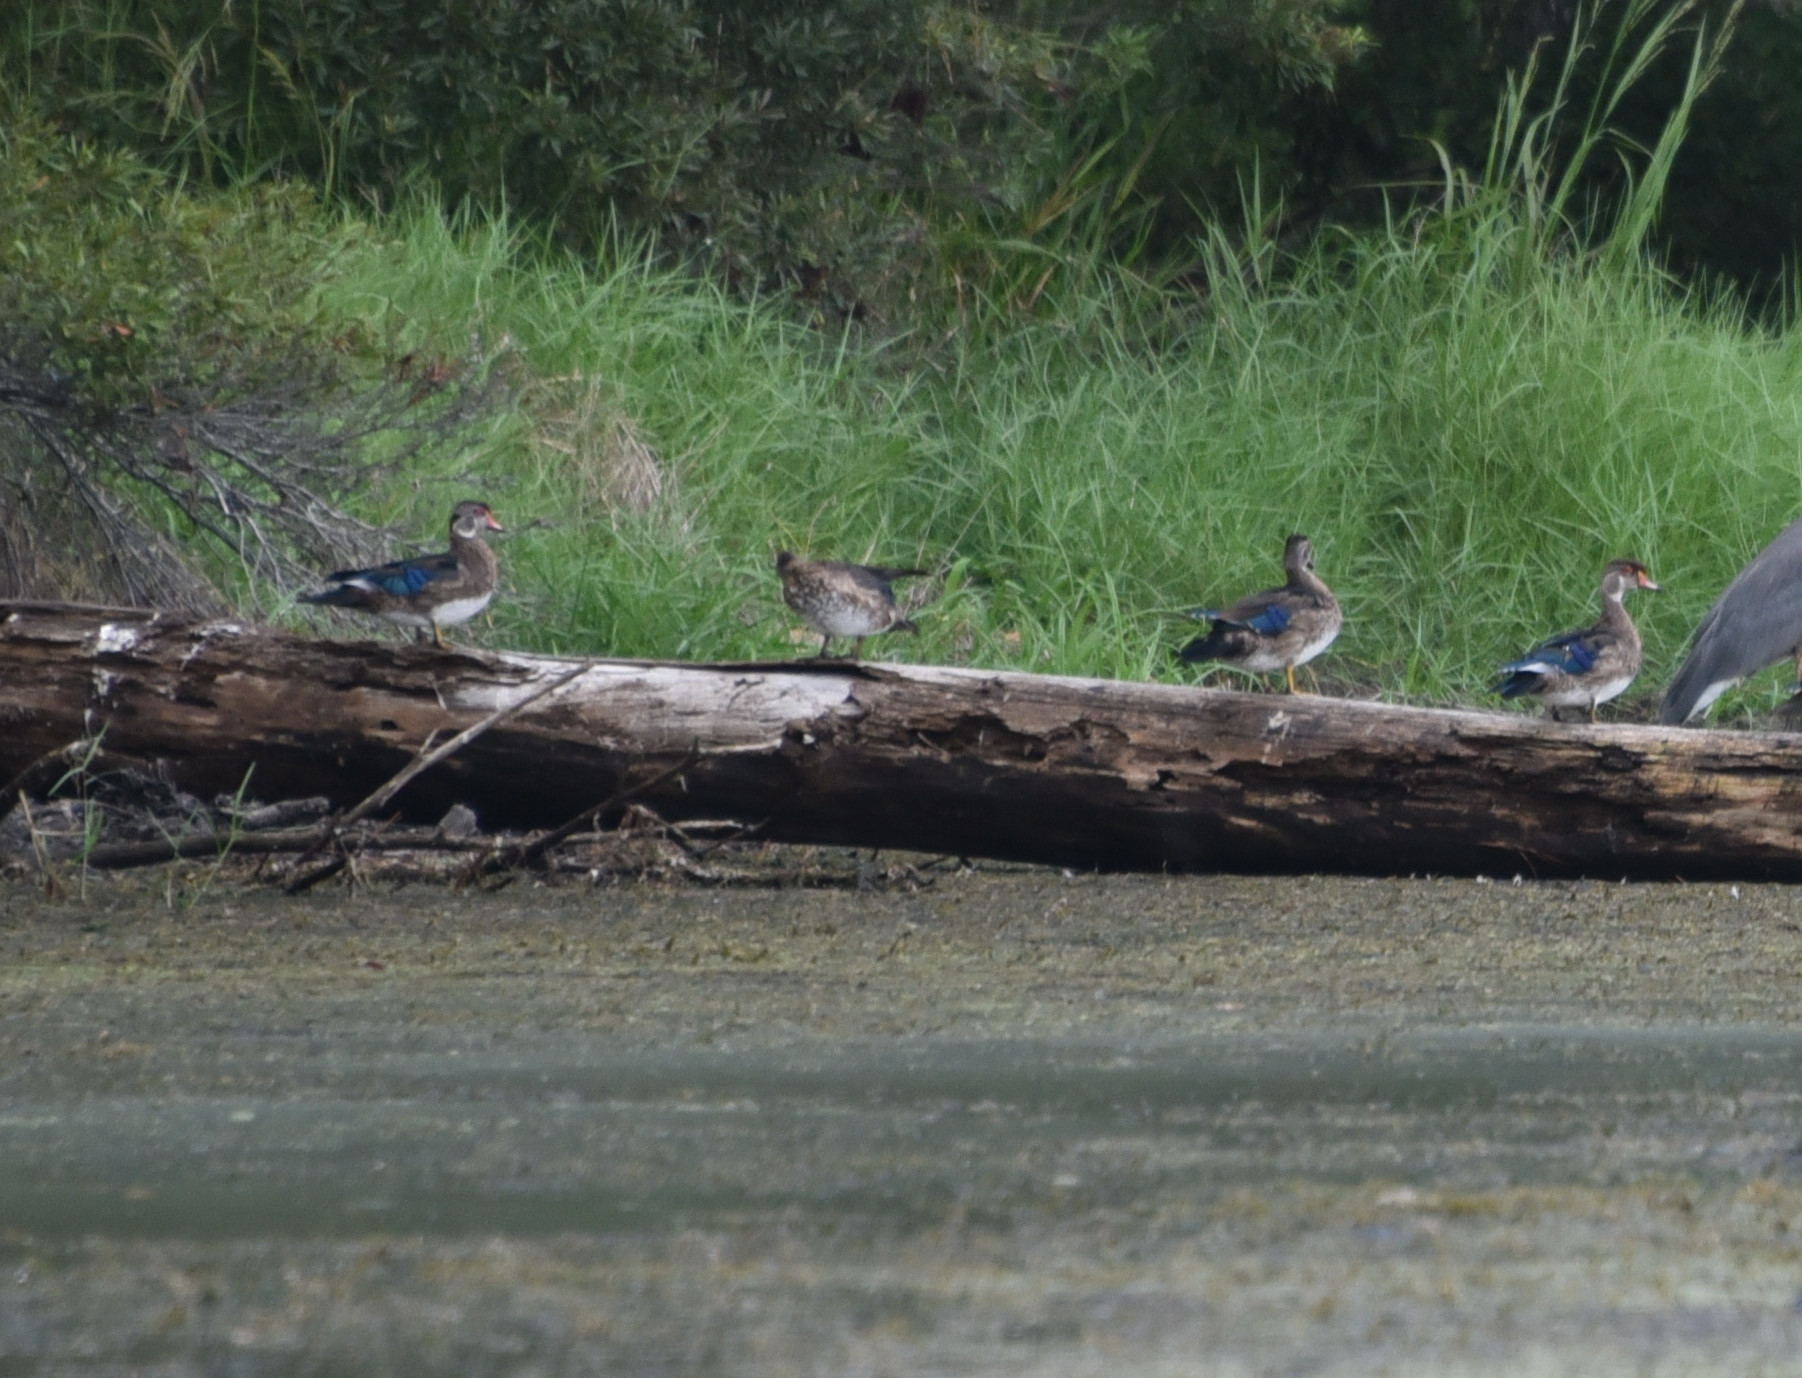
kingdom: Animalia
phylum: Chordata
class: Aves
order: Anseriformes
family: Anatidae
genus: Aix
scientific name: Aix sponsa
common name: Wood duck
